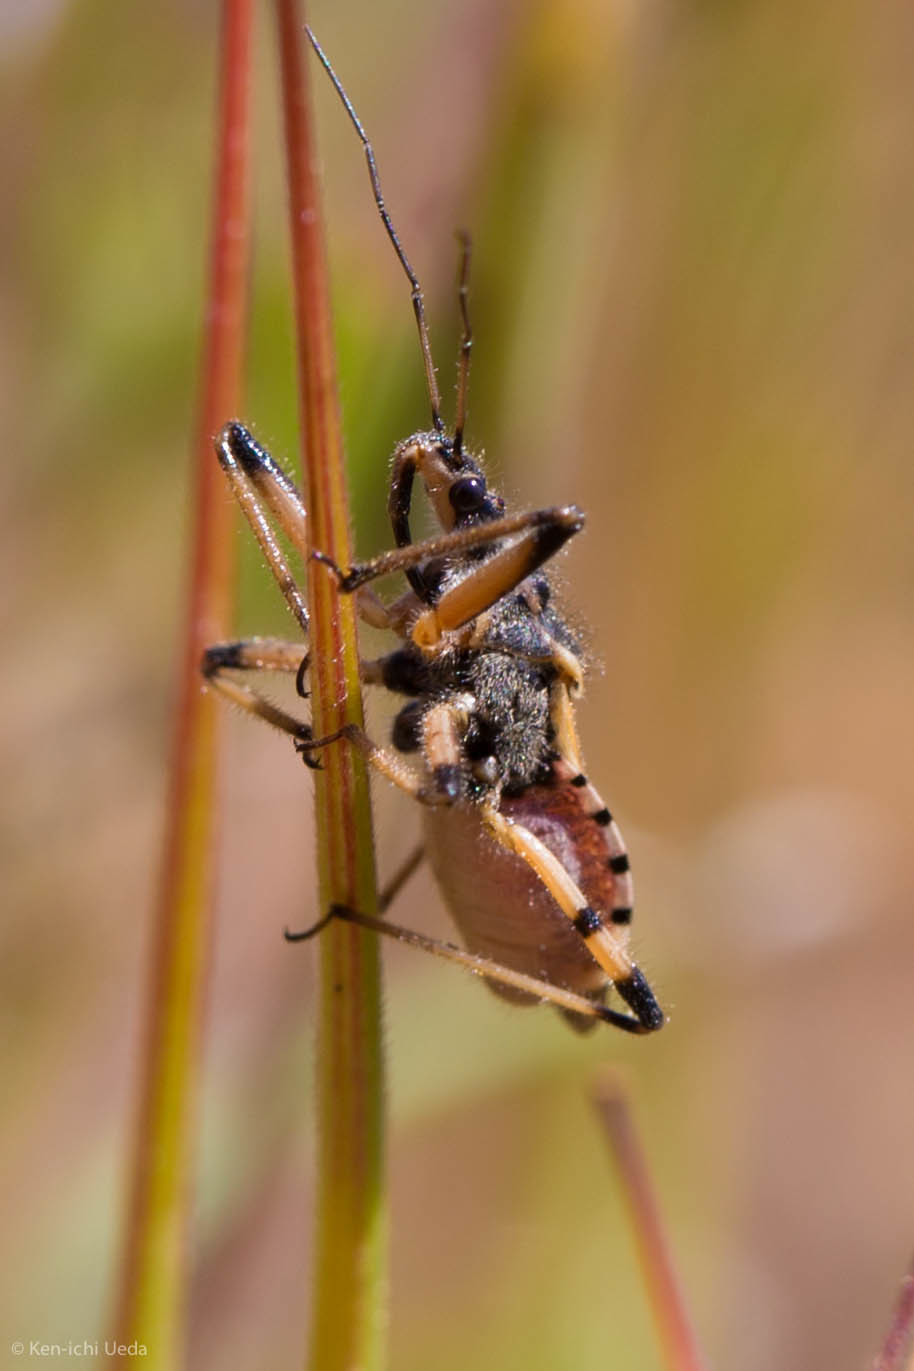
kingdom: Animalia
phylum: Arthropoda
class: Insecta
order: Hemiptera
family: Reduviidae
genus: Rhynocoris
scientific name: Rhynocoris ventralis
